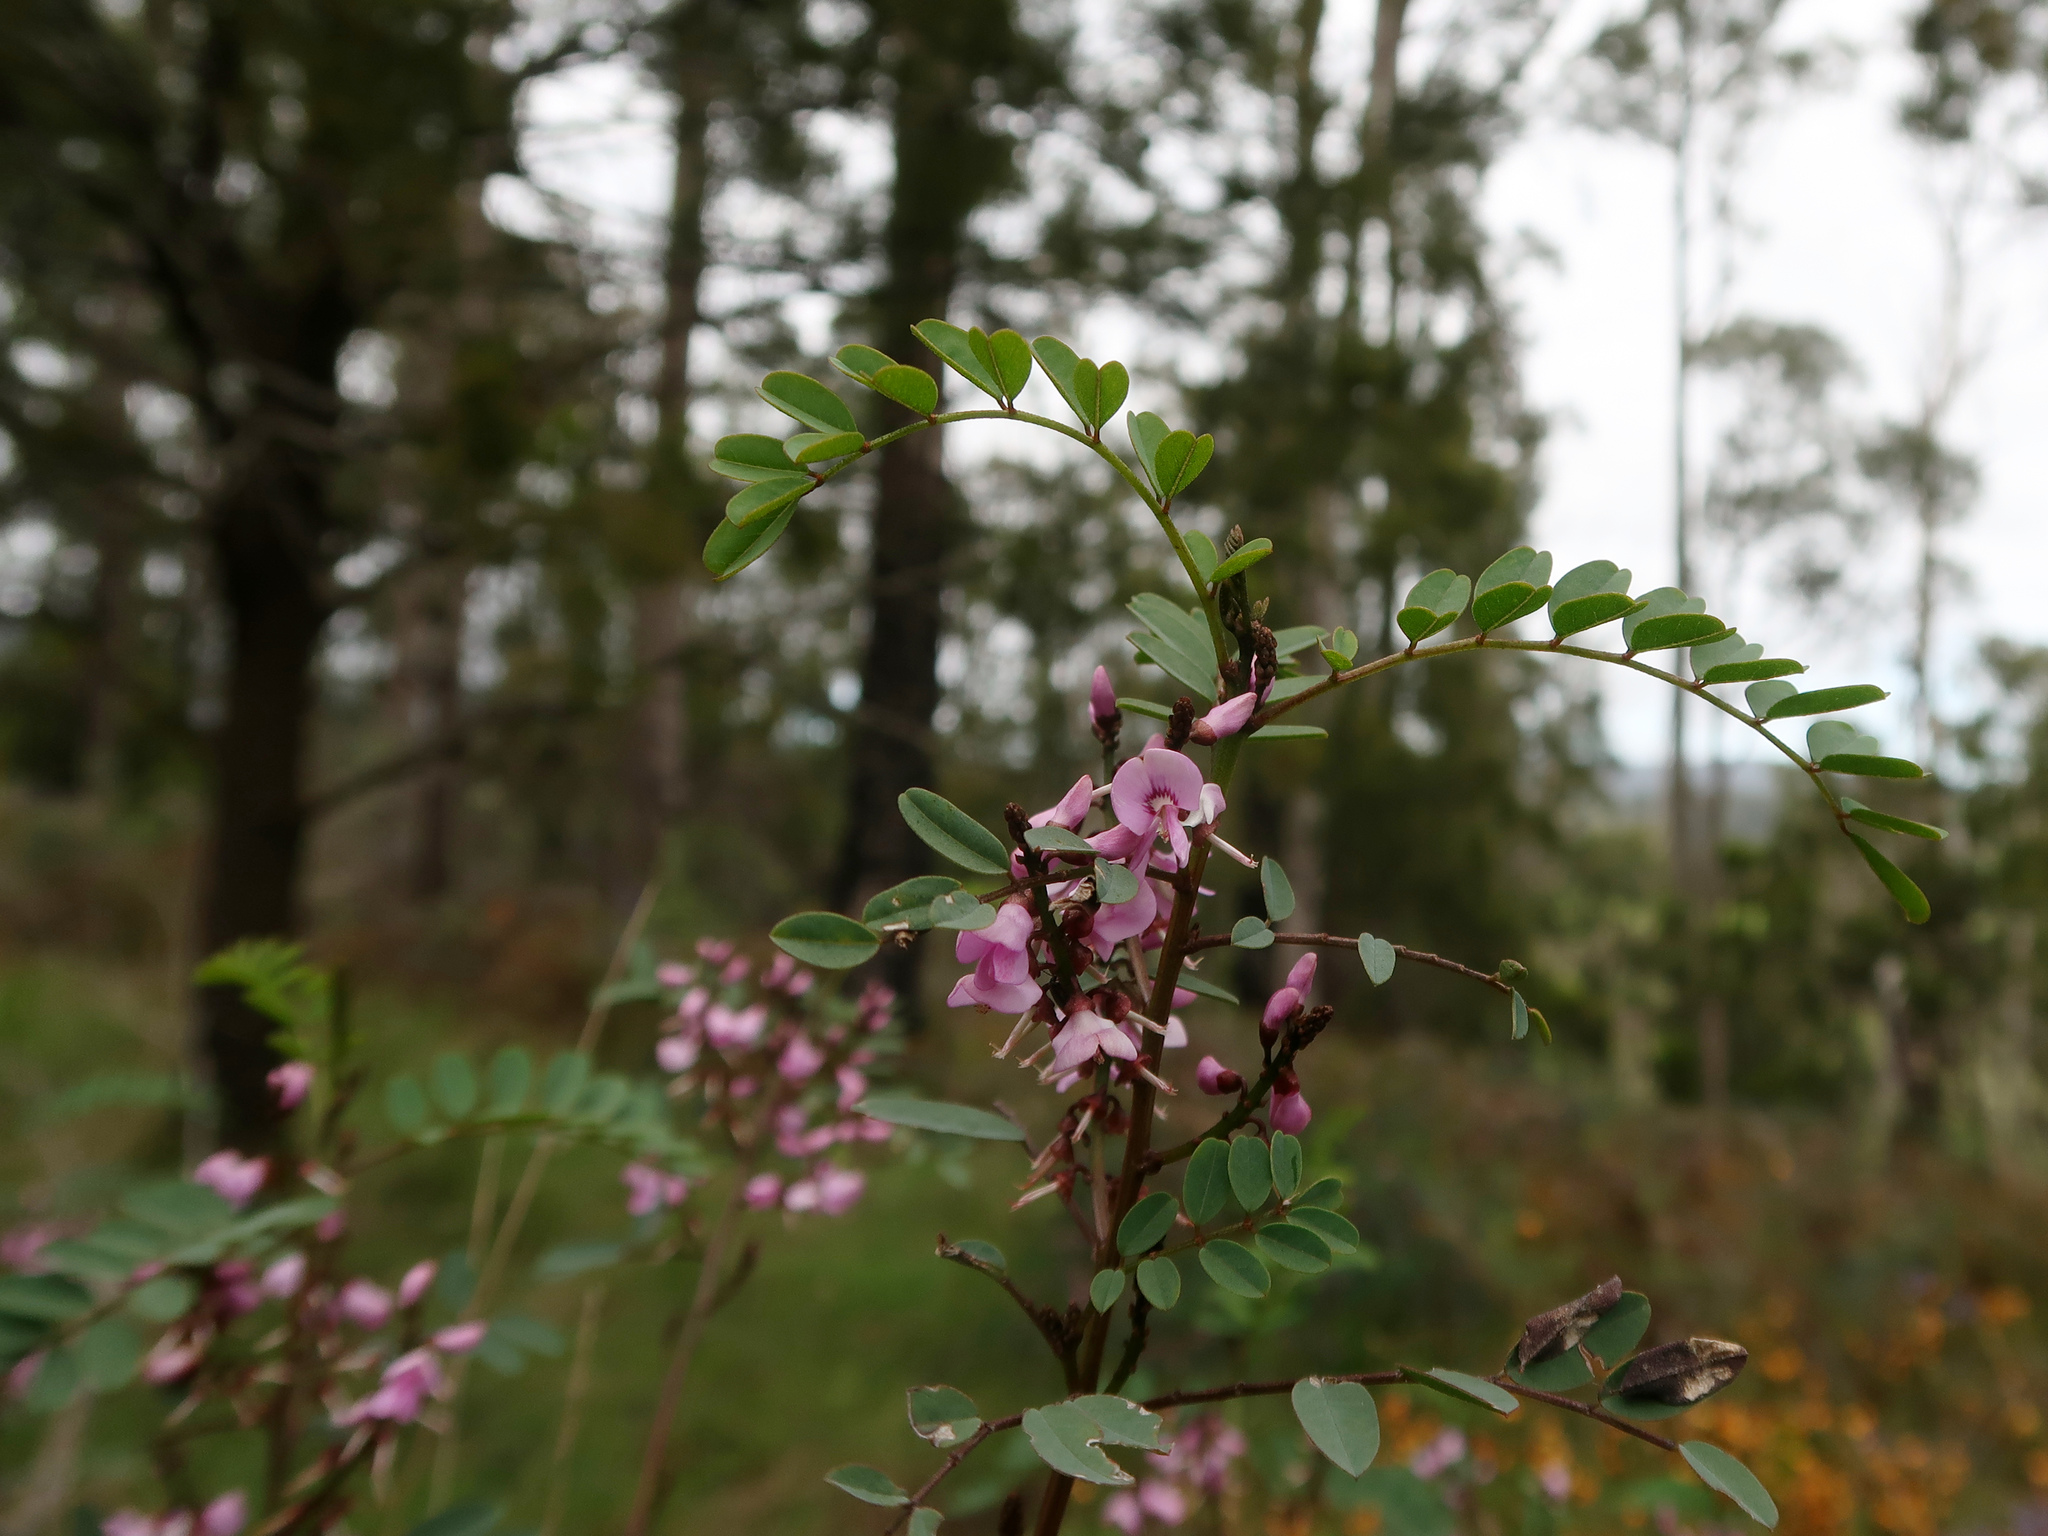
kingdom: Plantae
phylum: Tracheophyta
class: Magnoliopsida
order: Fabales
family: Fabaceae
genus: Indigofera
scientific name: Indigofera australis
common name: Australian indigo
